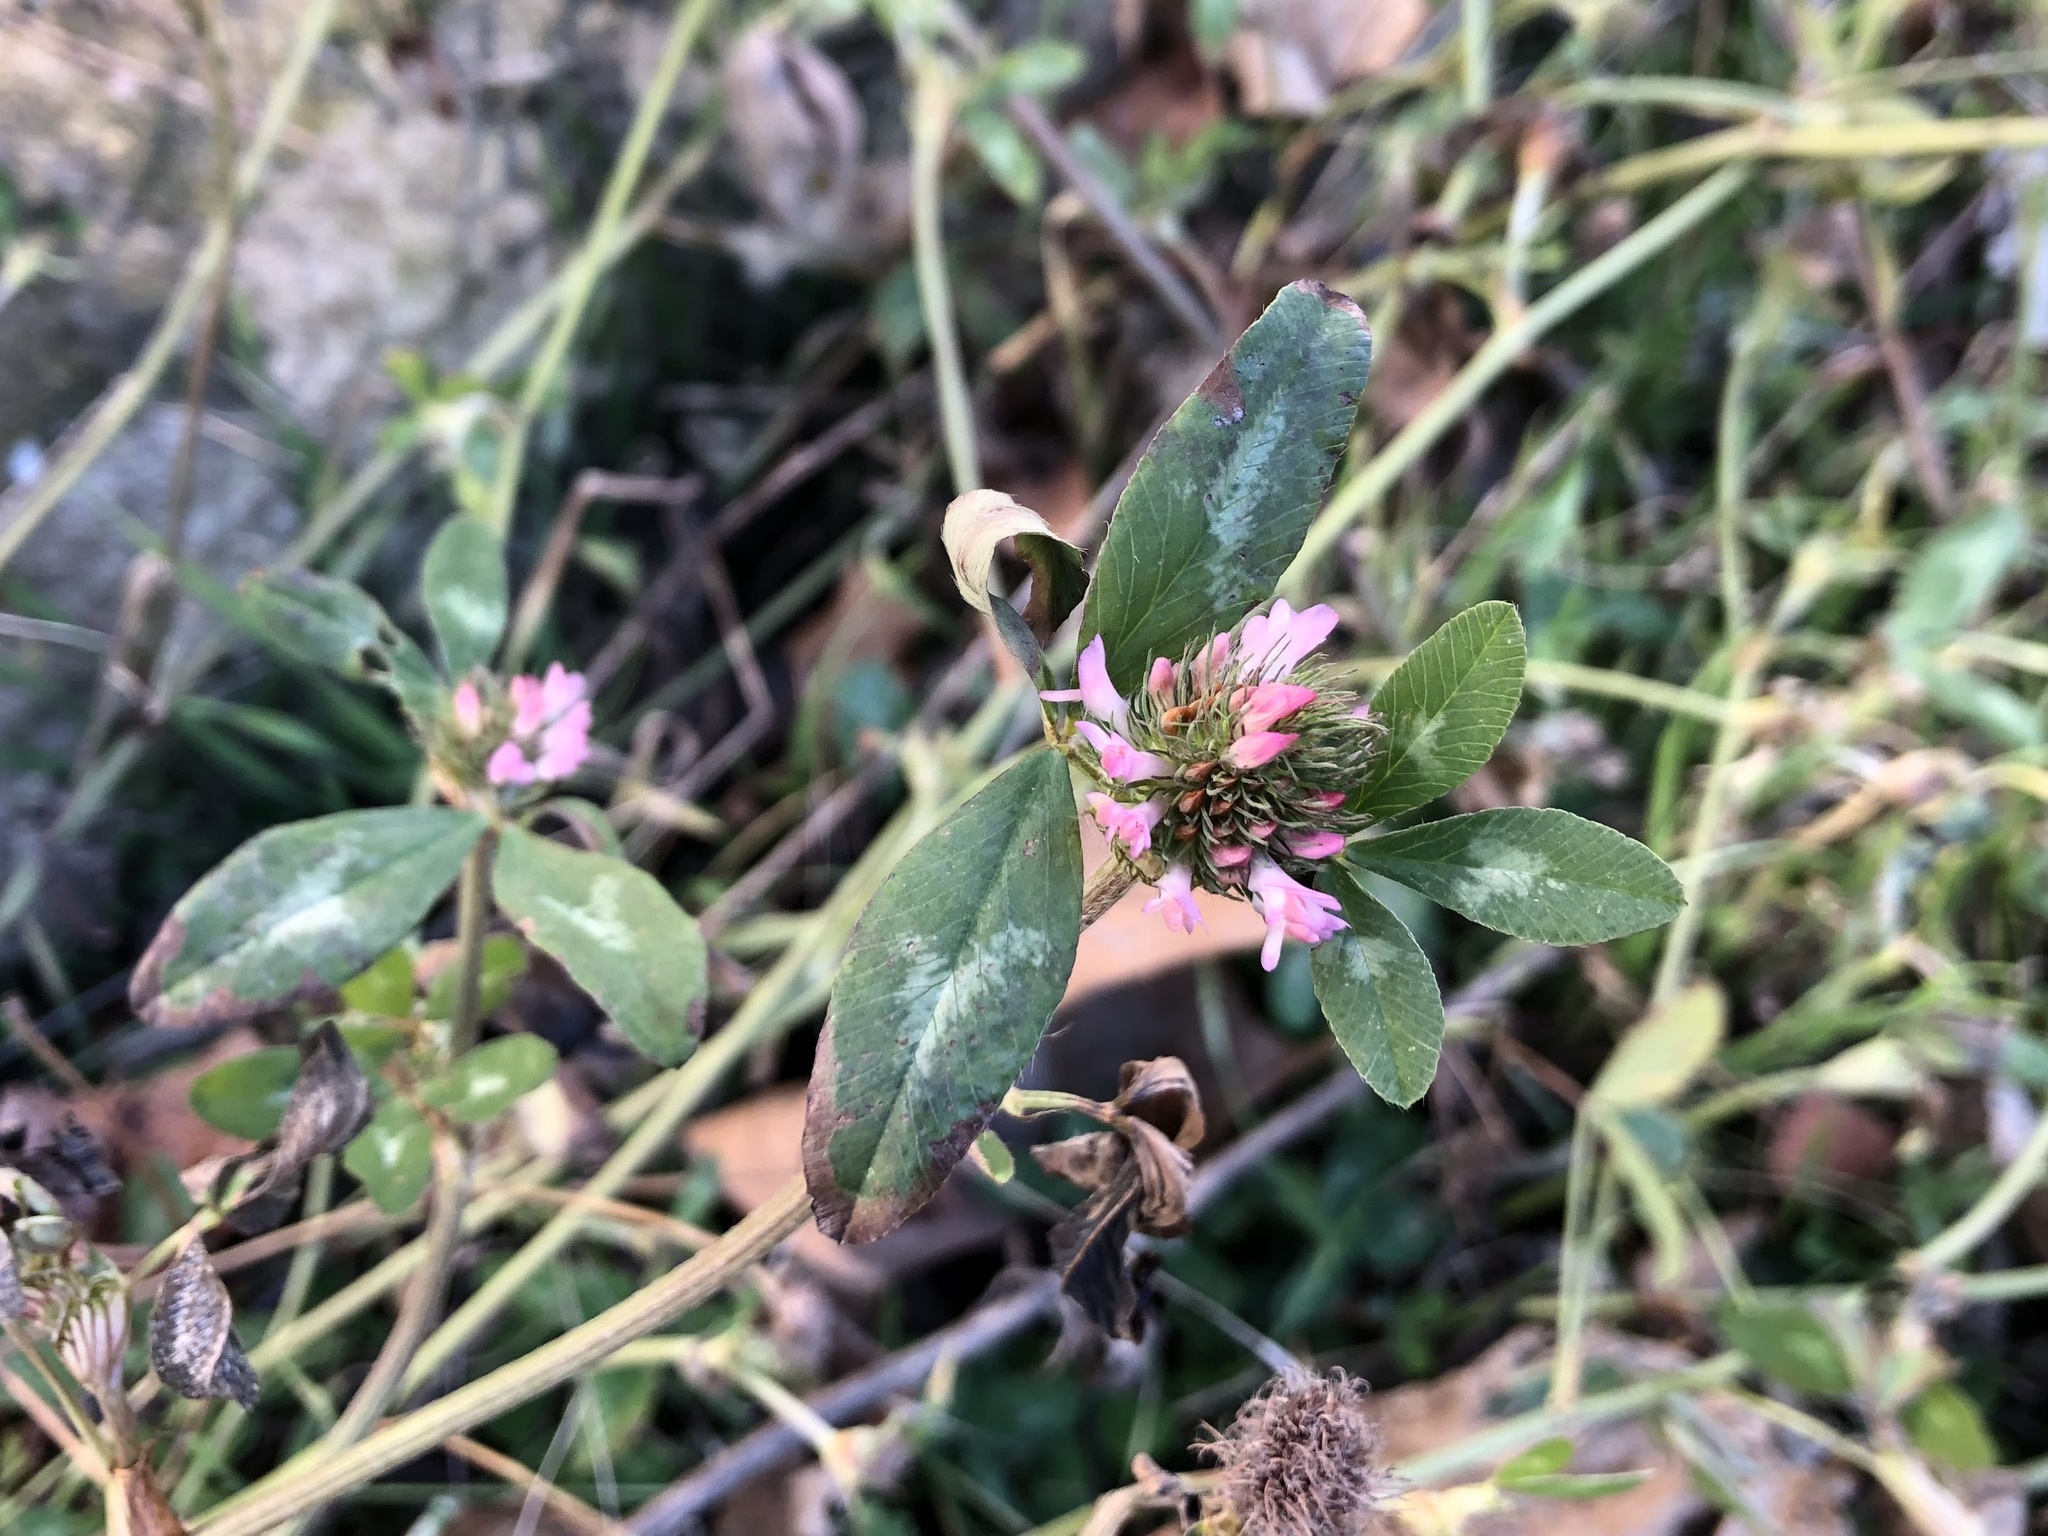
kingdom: Plantae
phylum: Tracheophyta
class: Magnoliopsida
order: Fabales
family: Fabaceae
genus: Trifolium
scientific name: Trifolium pratense
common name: Red clover
